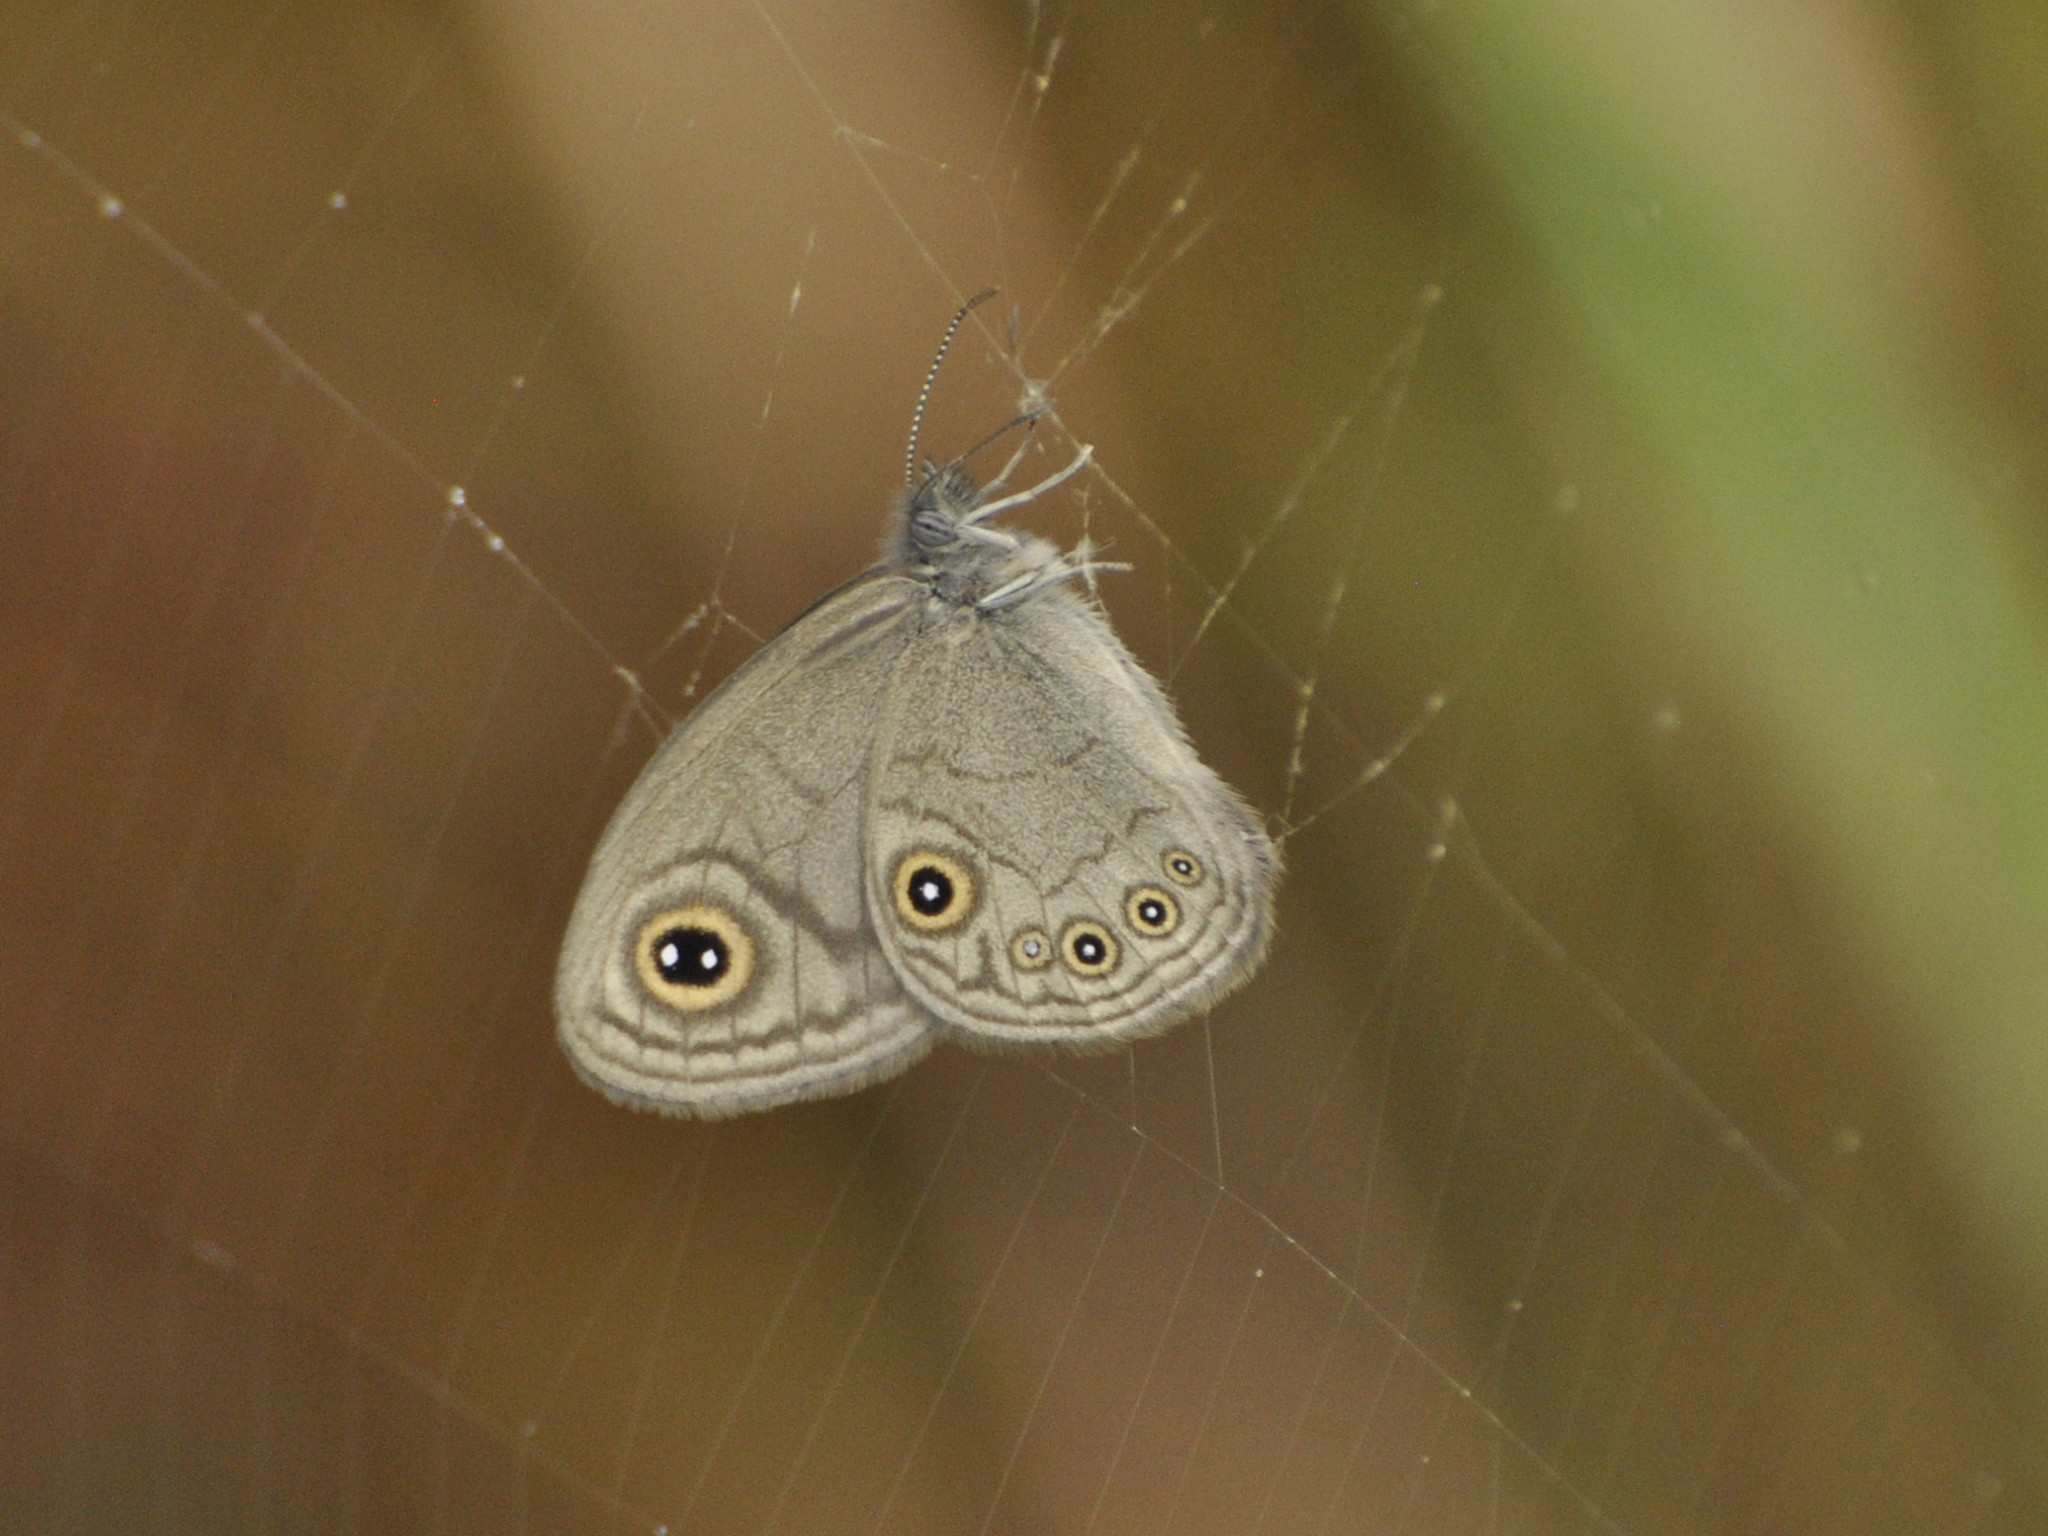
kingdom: Animalia
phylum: Arthropoda
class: Insecta
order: Lepidoptera
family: Nymphalidae
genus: Coenyropsis
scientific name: Coenyropsis bera
